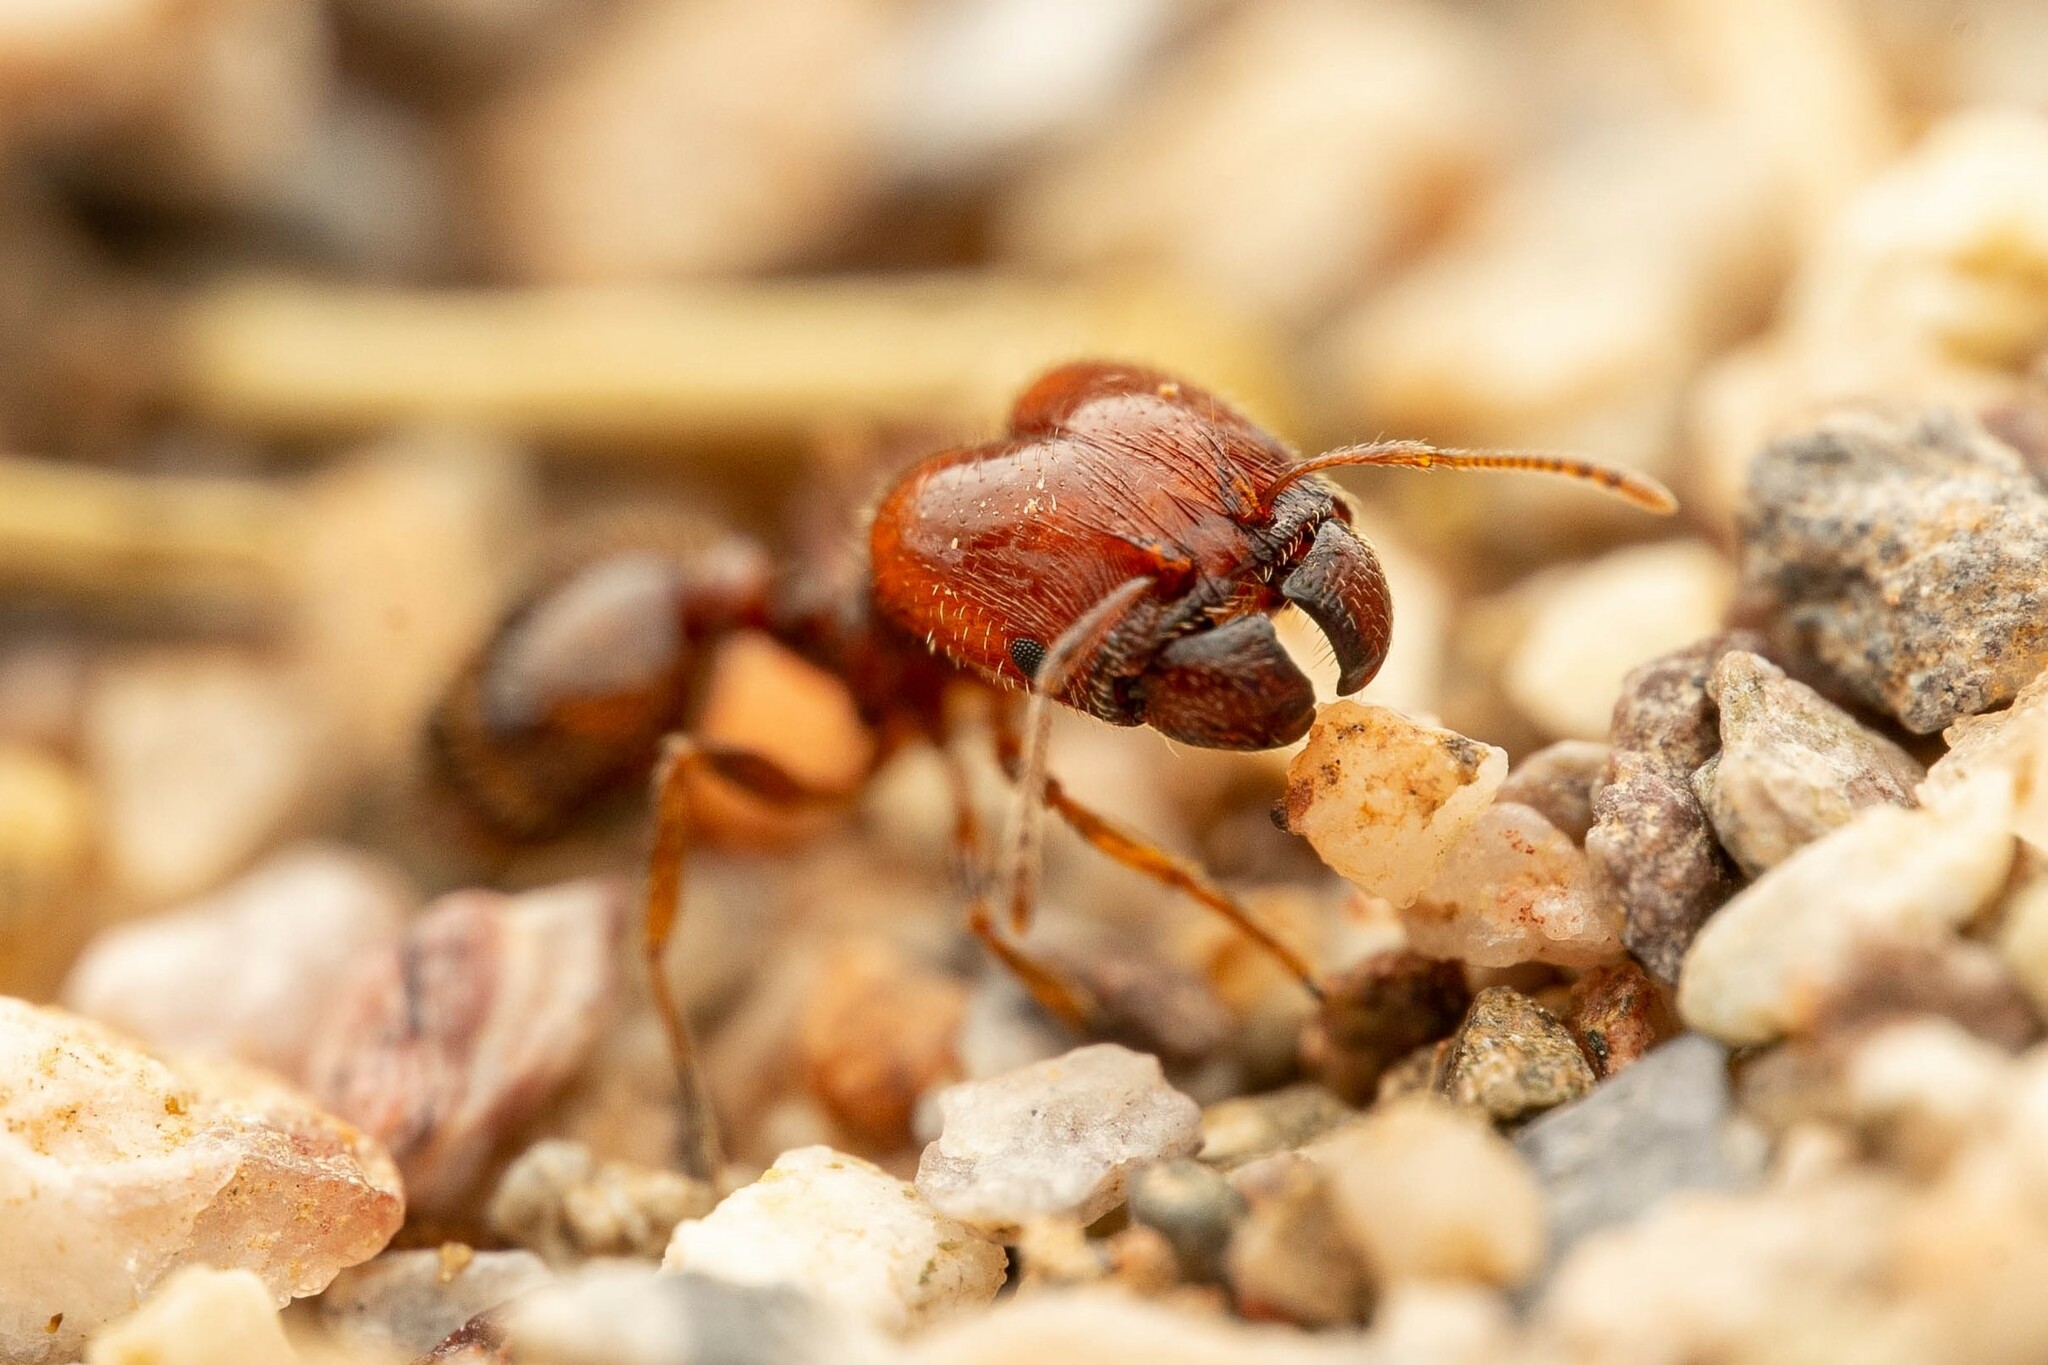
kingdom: Animalia
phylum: Arthropoda
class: Insecta
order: Hymenoptera
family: Formicidae
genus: Pheidole
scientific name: Pheidole xerophila
